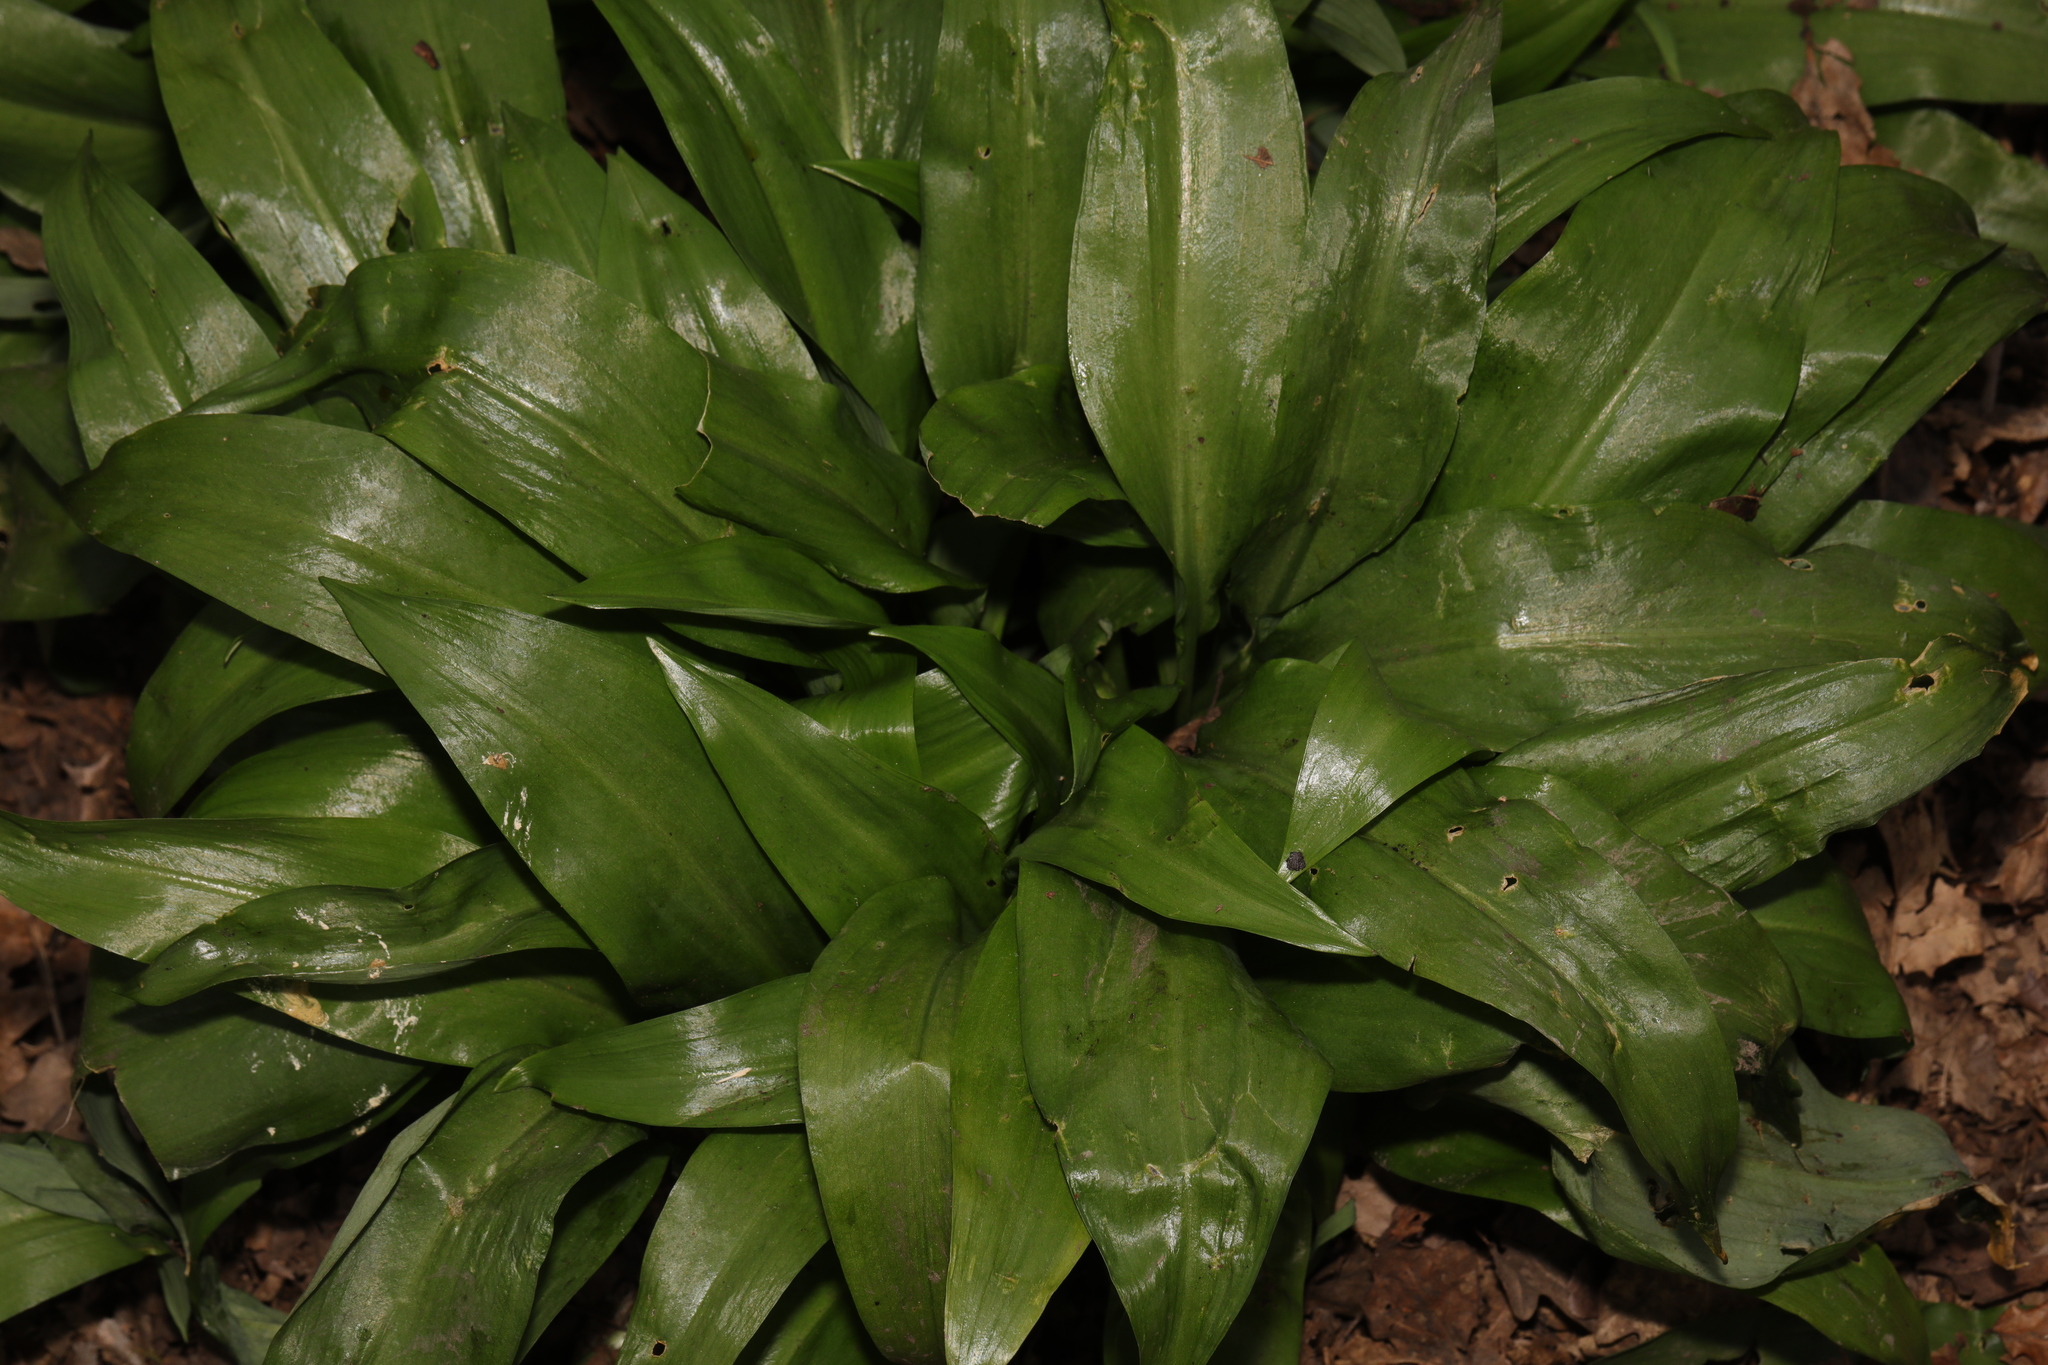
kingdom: Plantae
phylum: Tracheophyta
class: Liliopsida
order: Asparagales
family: Amaryllidaceae
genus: Allium
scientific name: Allium ursinum
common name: Ramsons
